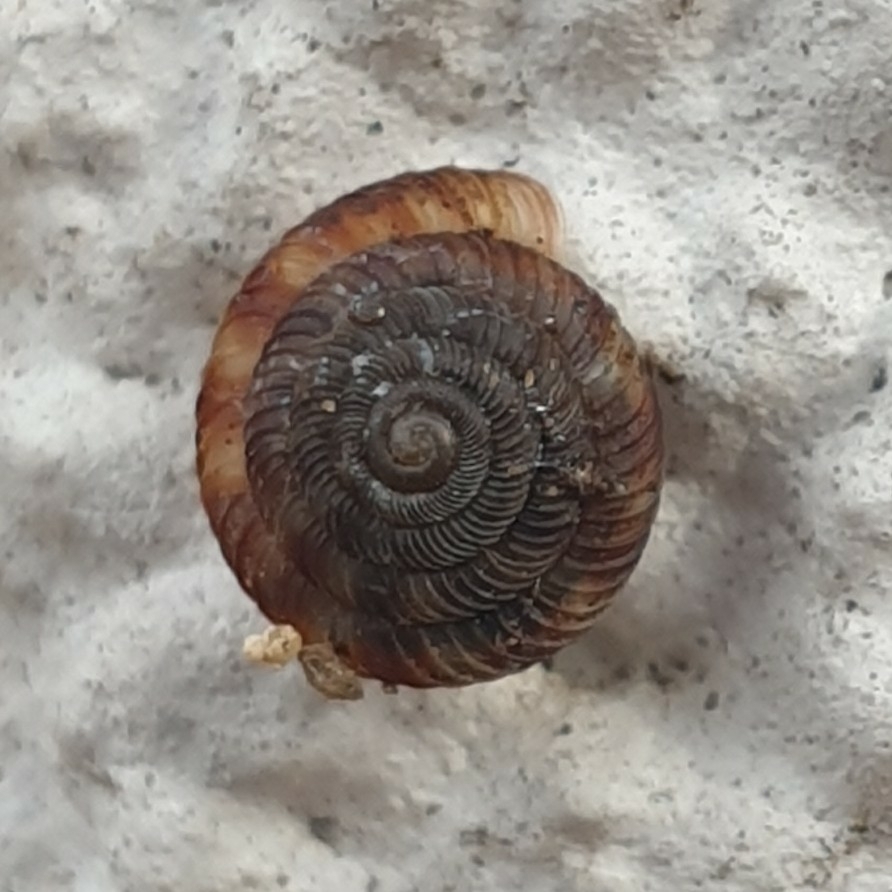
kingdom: Animalia
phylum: Mollusca
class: Gastropoda
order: Stylommatophora
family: Discidae
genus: Discus
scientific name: Discus rotundatus
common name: Rounded snail
